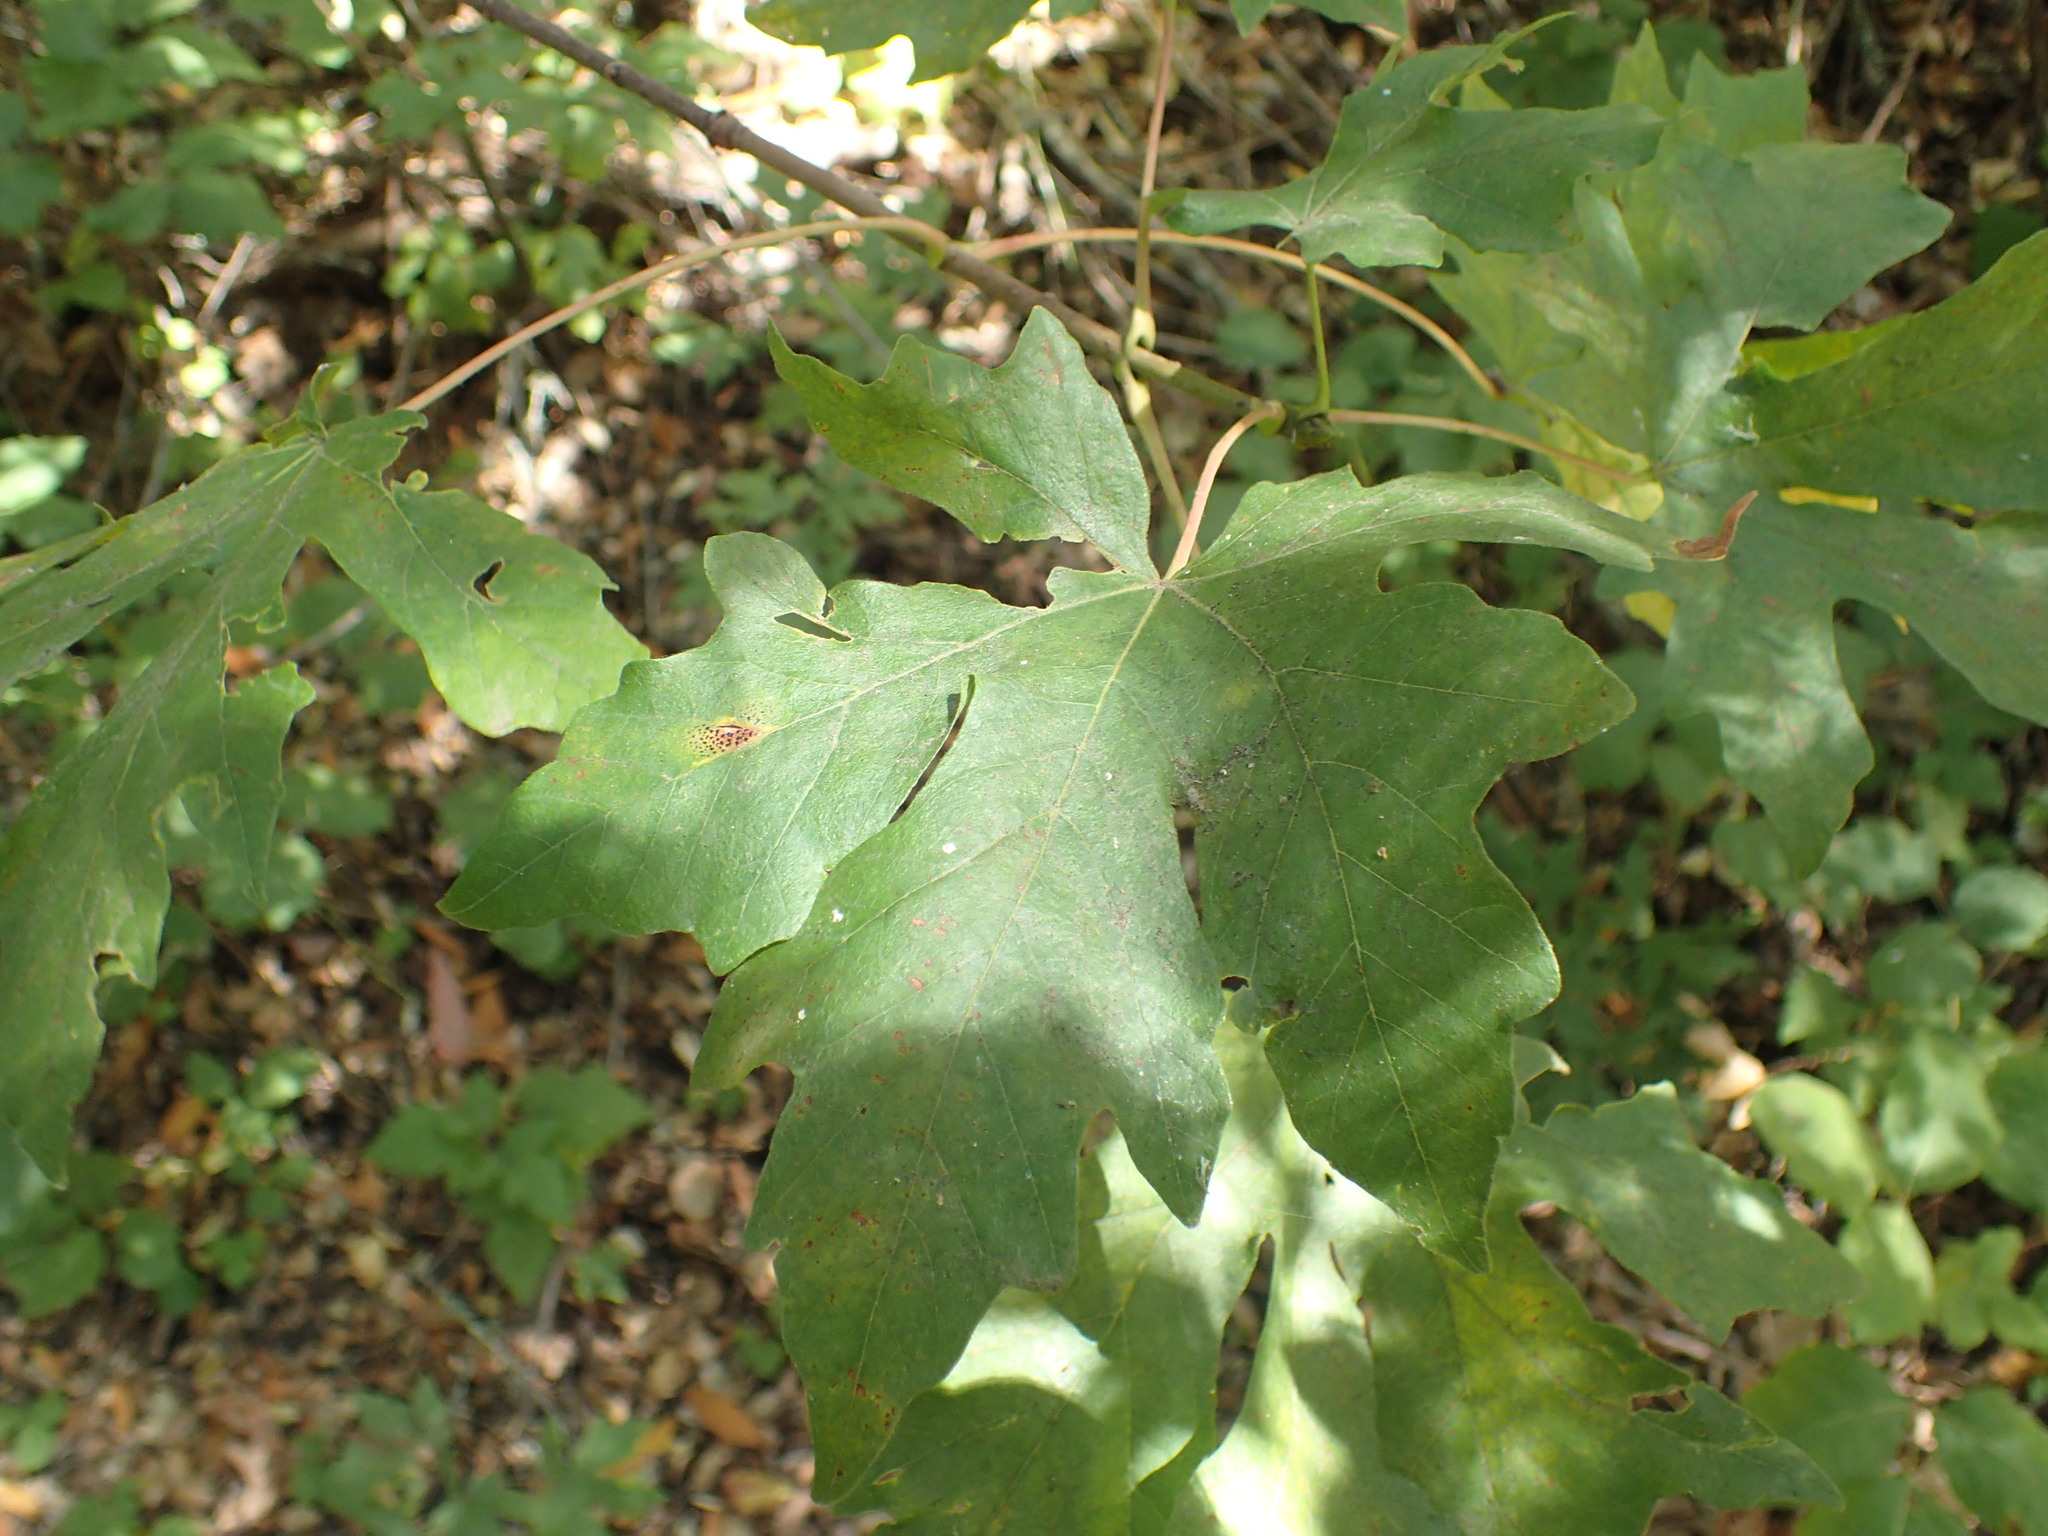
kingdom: Fungi
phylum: Ascomycota
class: Leotiomycetes
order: Rhytismatales
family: Rhytismataceae
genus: Rhytisma
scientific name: Rhytisma punctatum
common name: Speckled tar spot
